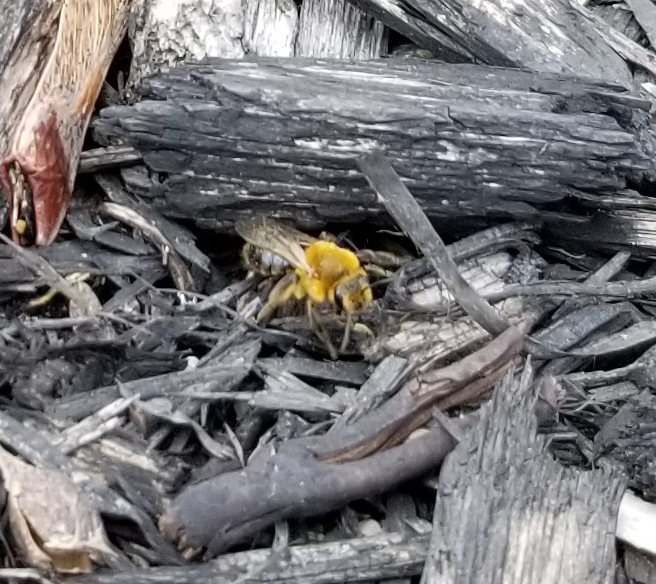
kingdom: Animalia
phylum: Arthropoda
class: Insecta
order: Hymenoptera
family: Andrenidae
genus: Andrena
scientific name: Andrena dunningi
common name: Dunning's miner
